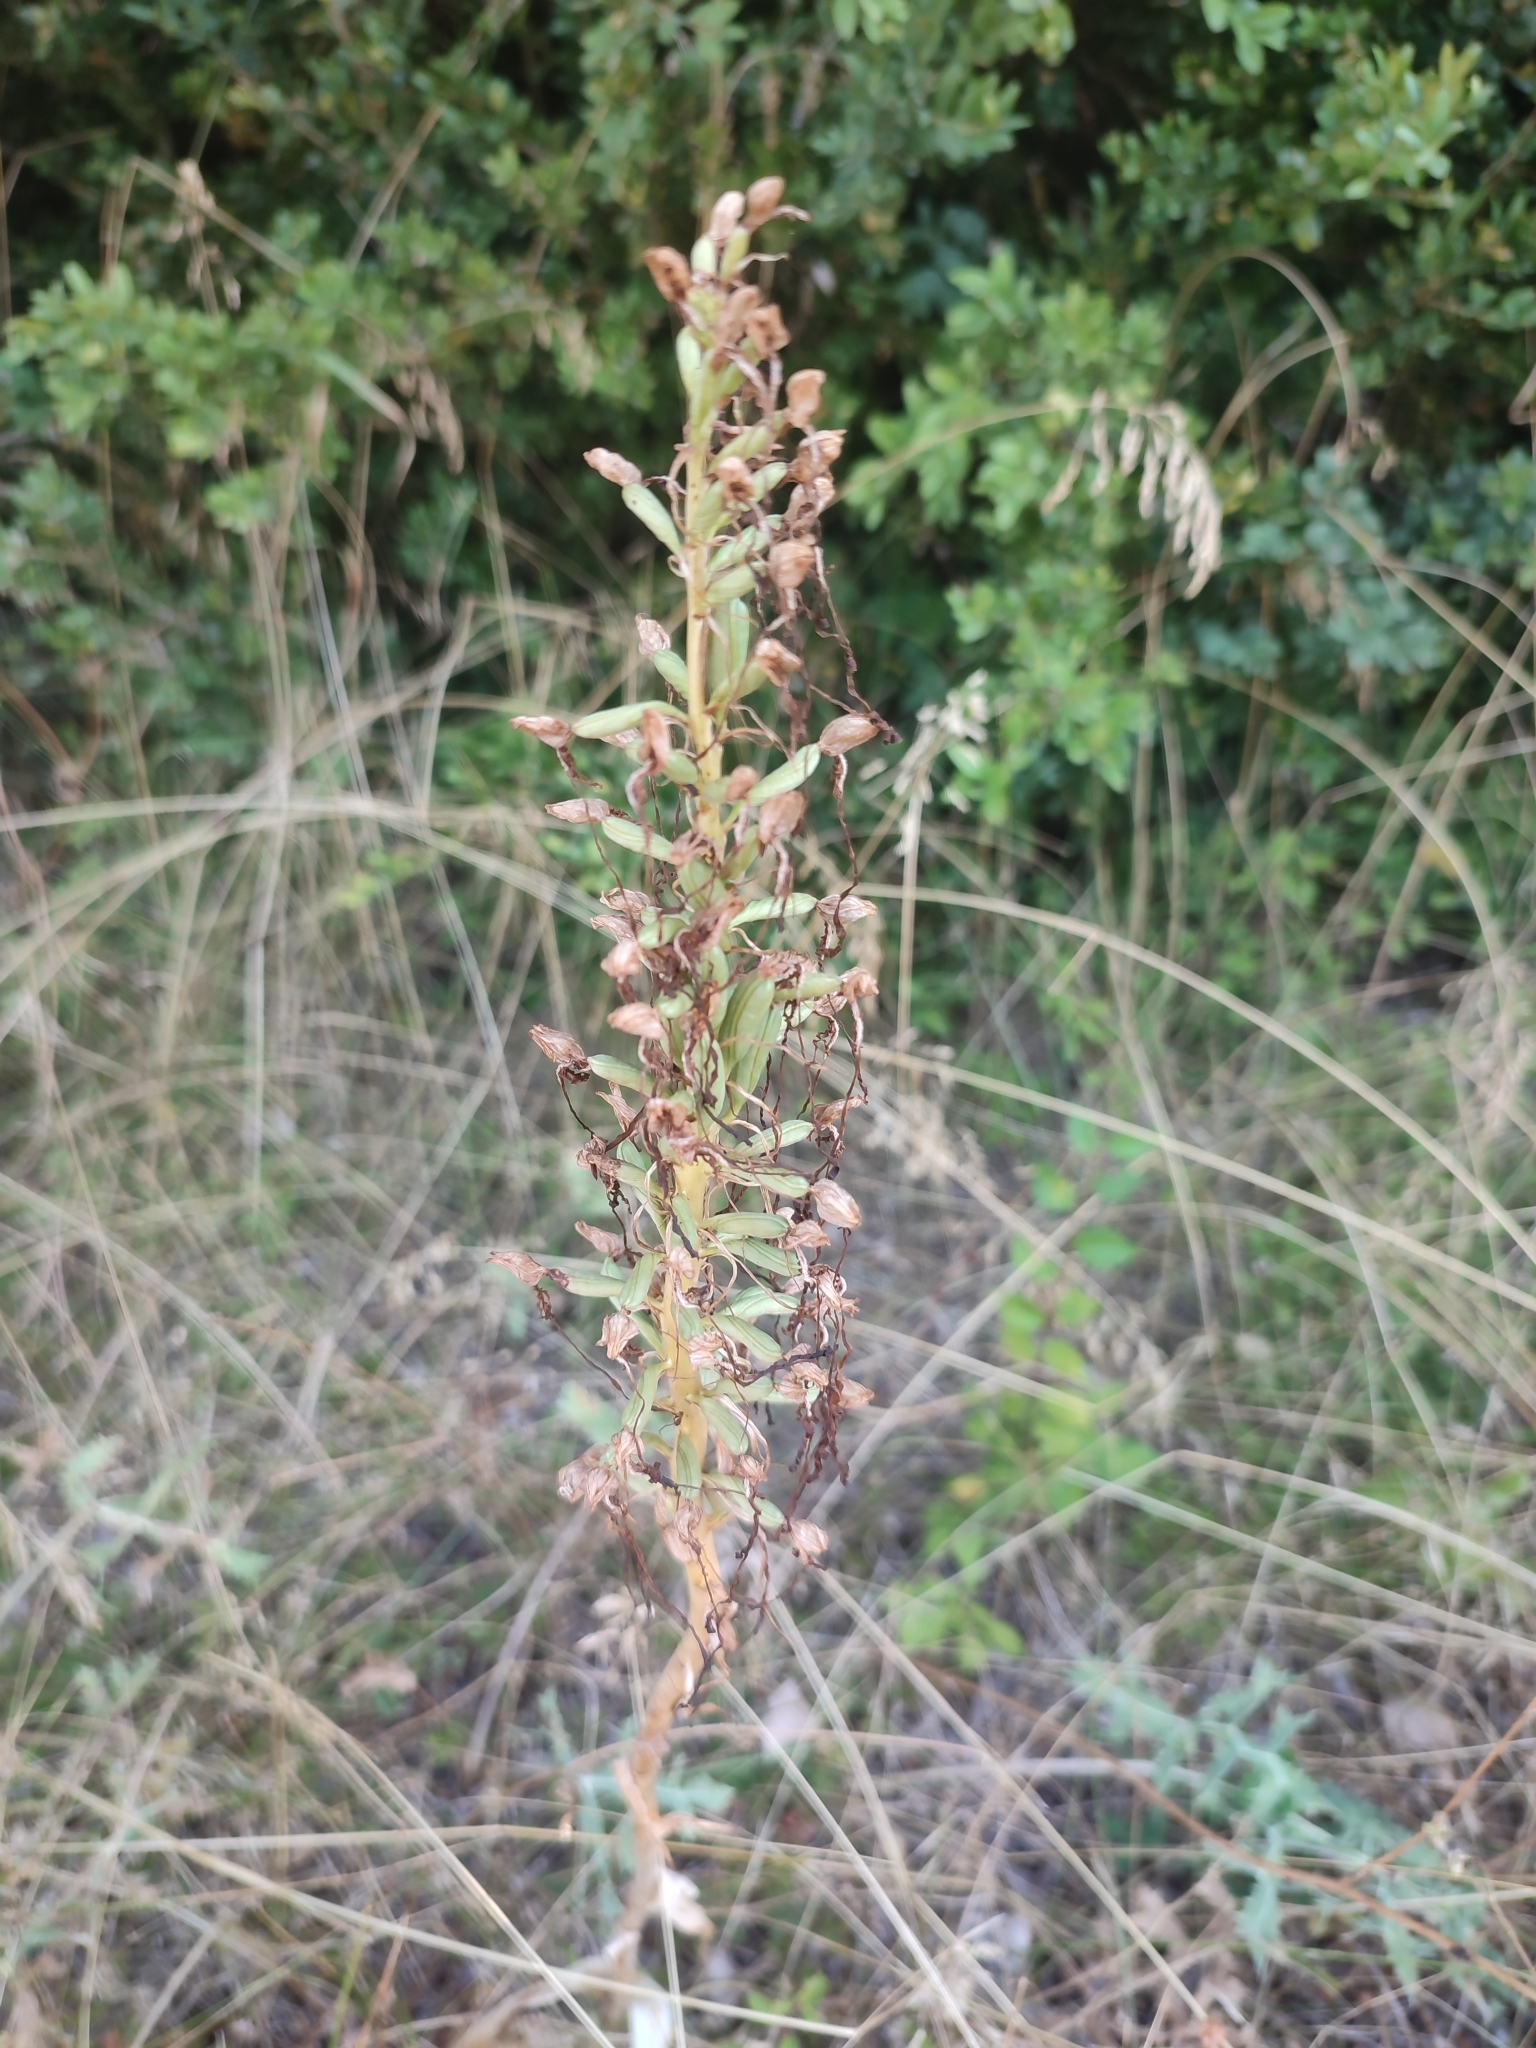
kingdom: Plantae
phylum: Tracheophyta
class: Liliopsida
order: Asparagales
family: Orchidaceae
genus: Himantoglossum
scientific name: Himantoglossum hircinum
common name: Lizard orchid
